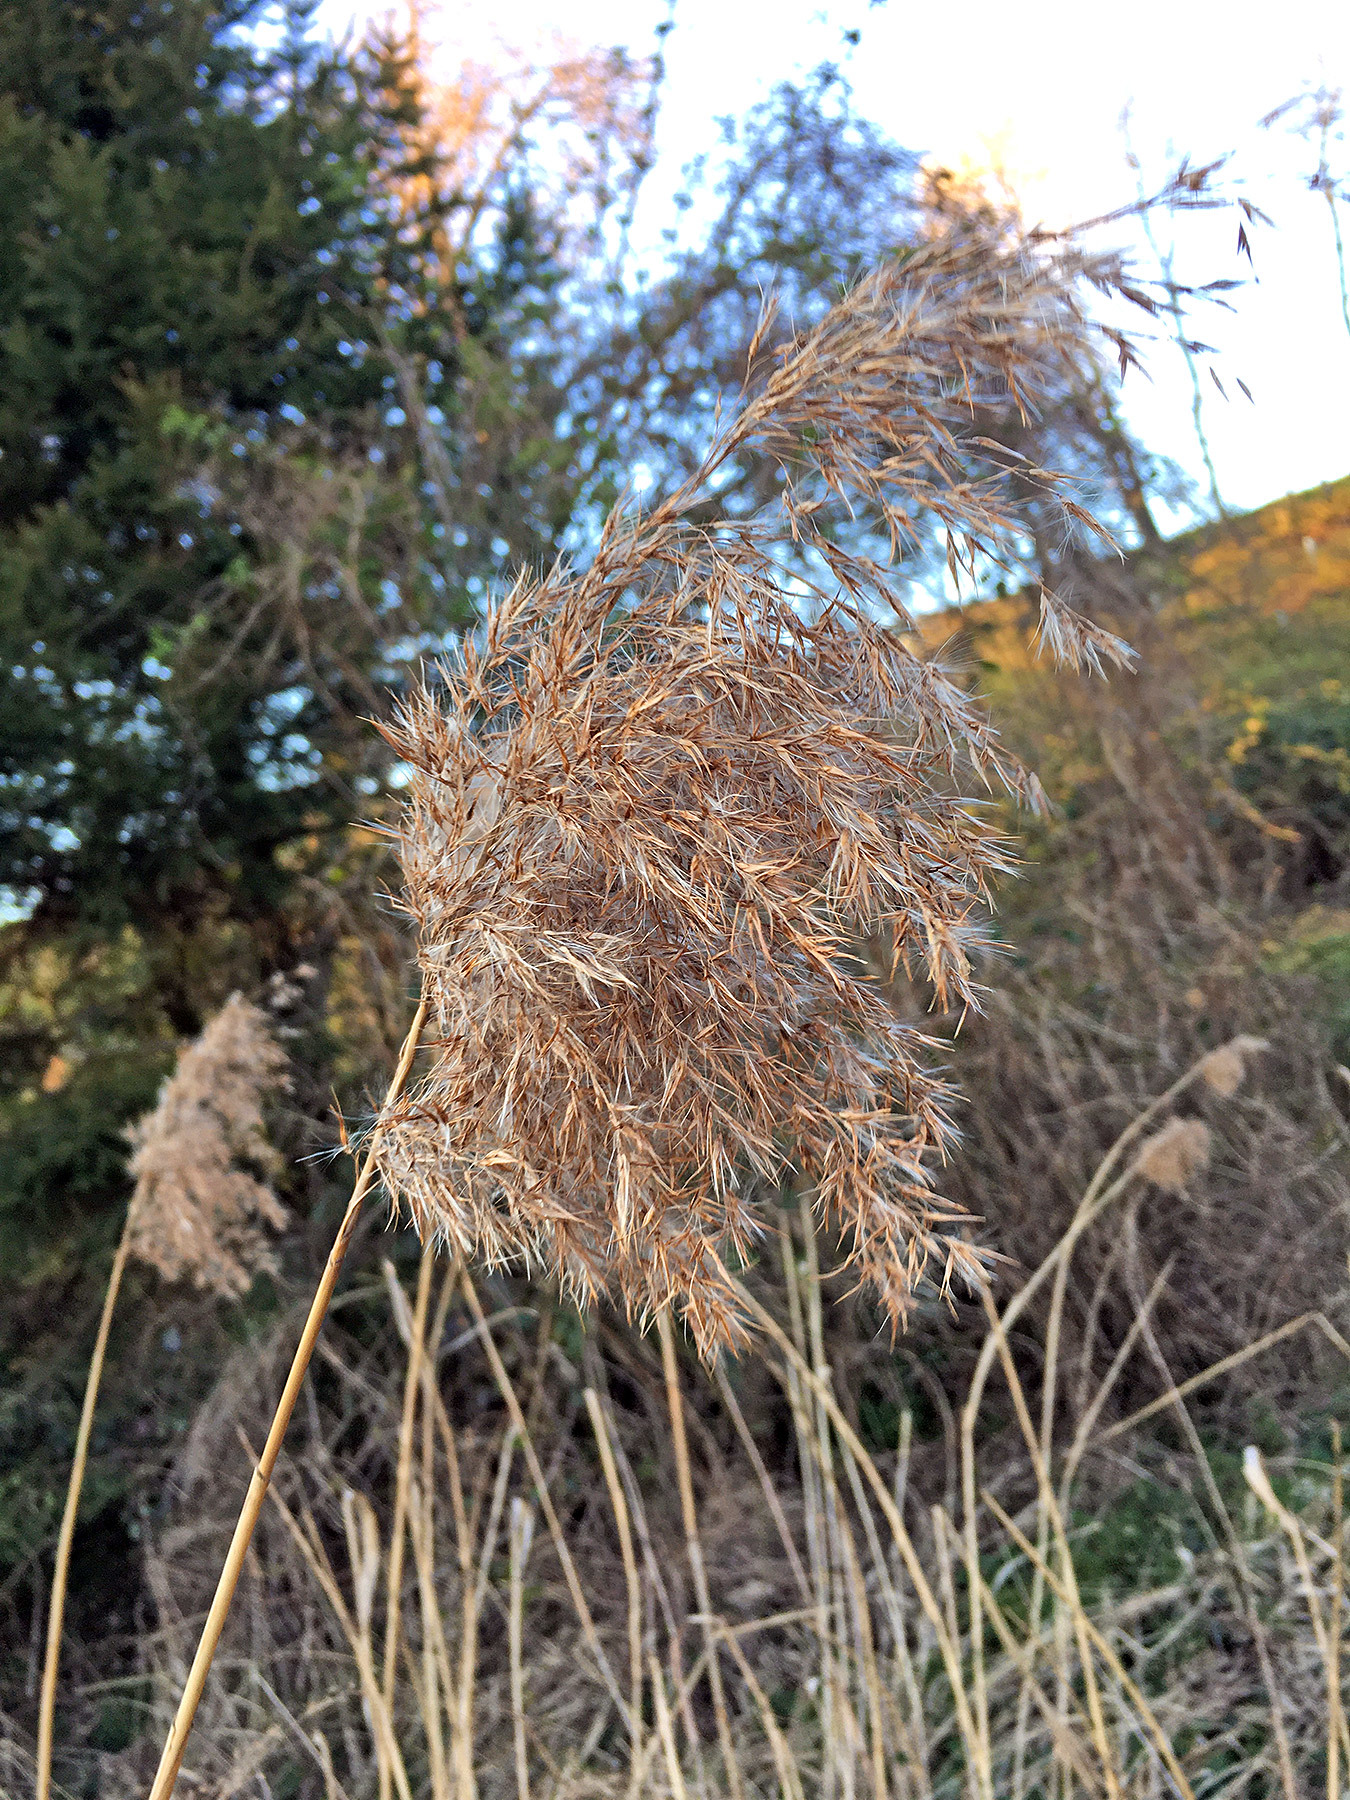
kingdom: Plantae
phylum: Tracheophyta
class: Liliopsida
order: Poales
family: Poaceae
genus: Phragmites
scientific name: Phragmites australis
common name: Common reed
